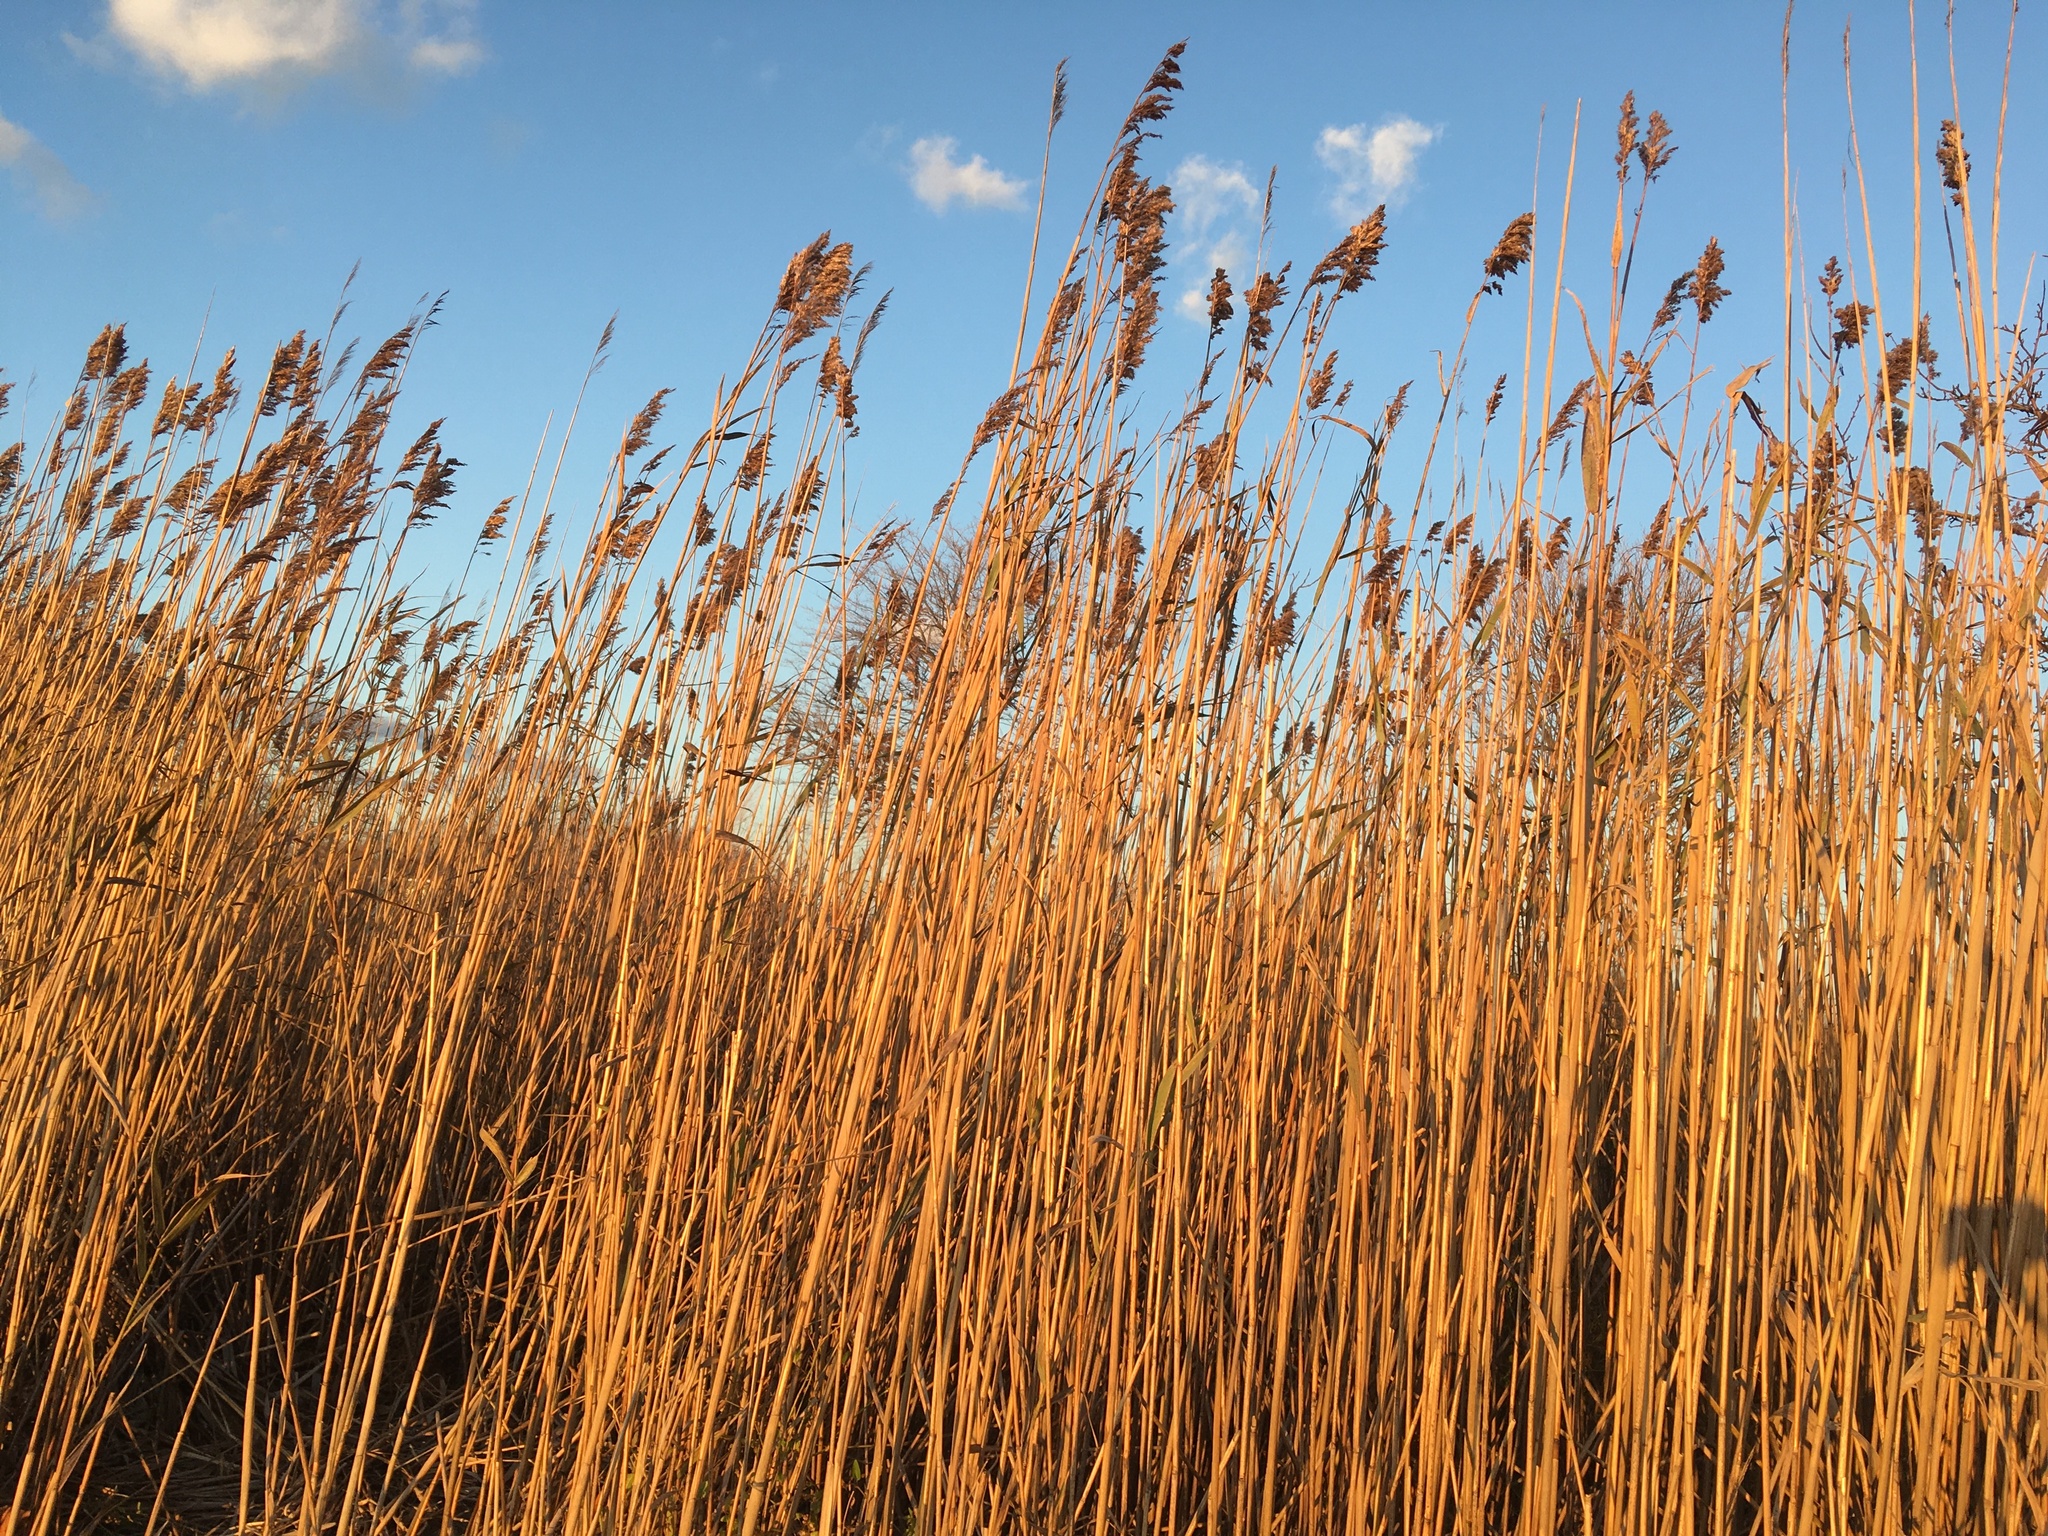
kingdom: Plantae
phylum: Tracheophyta
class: Liliopsida
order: Poales
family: Poaceae
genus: Phragmites
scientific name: Phragmites australis
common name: Common reed
